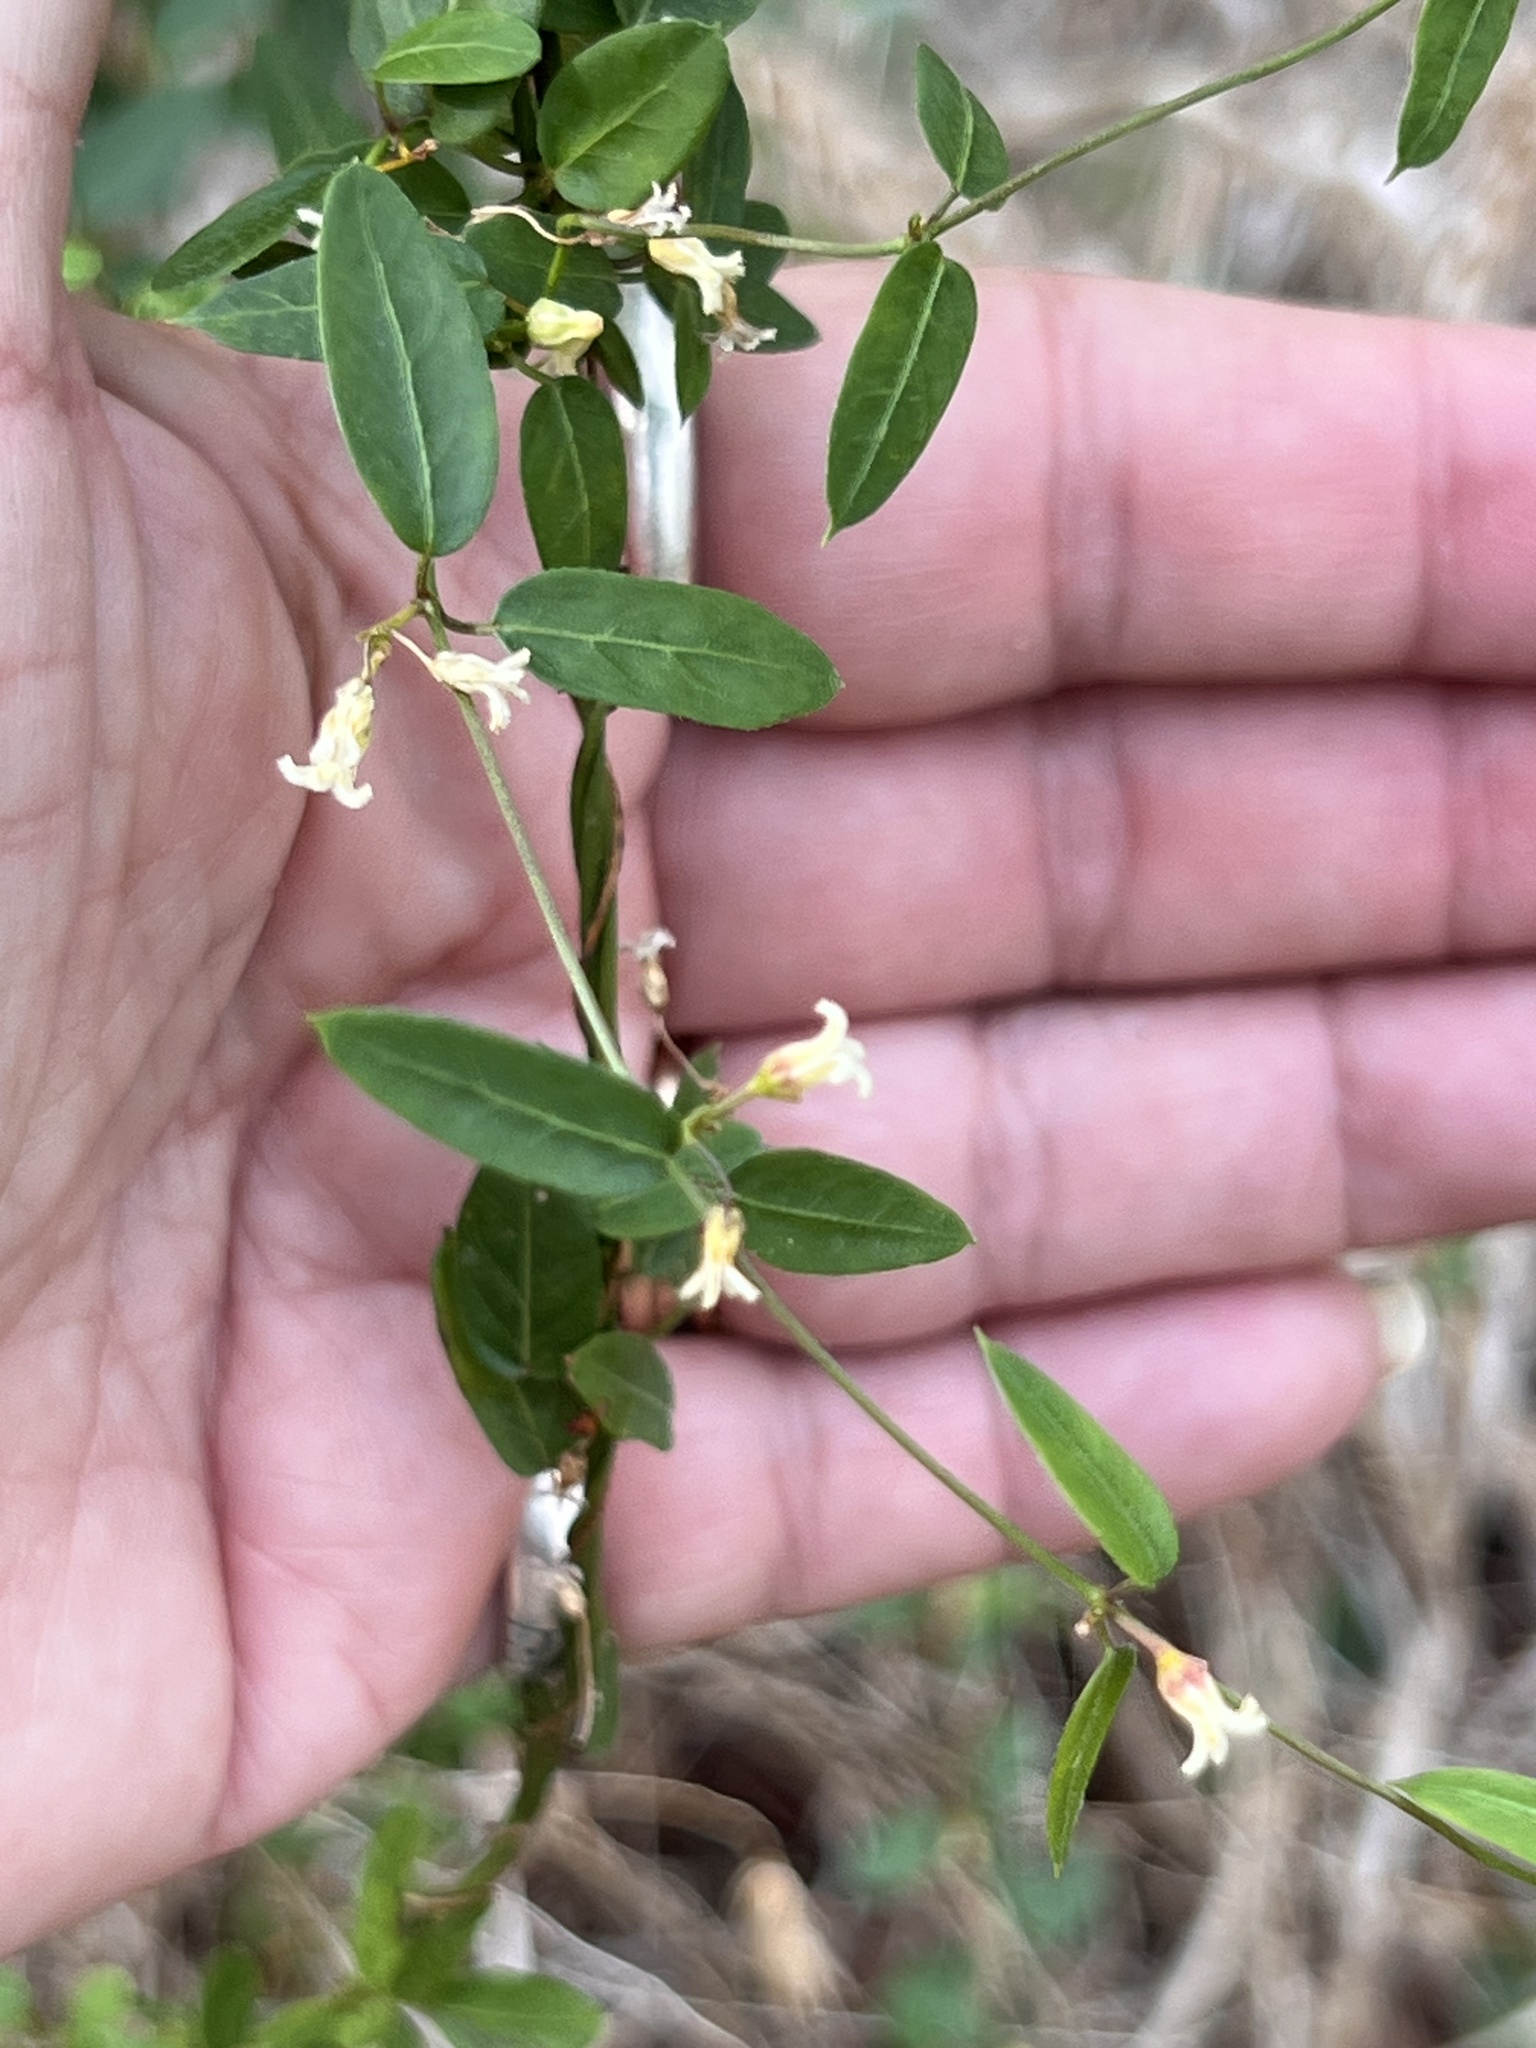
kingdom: Plantae
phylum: Tracheophyta
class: Magnoliopsida
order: Gentianales
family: Apocynaceae
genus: Metastelma
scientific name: Metastelma barbigerum
